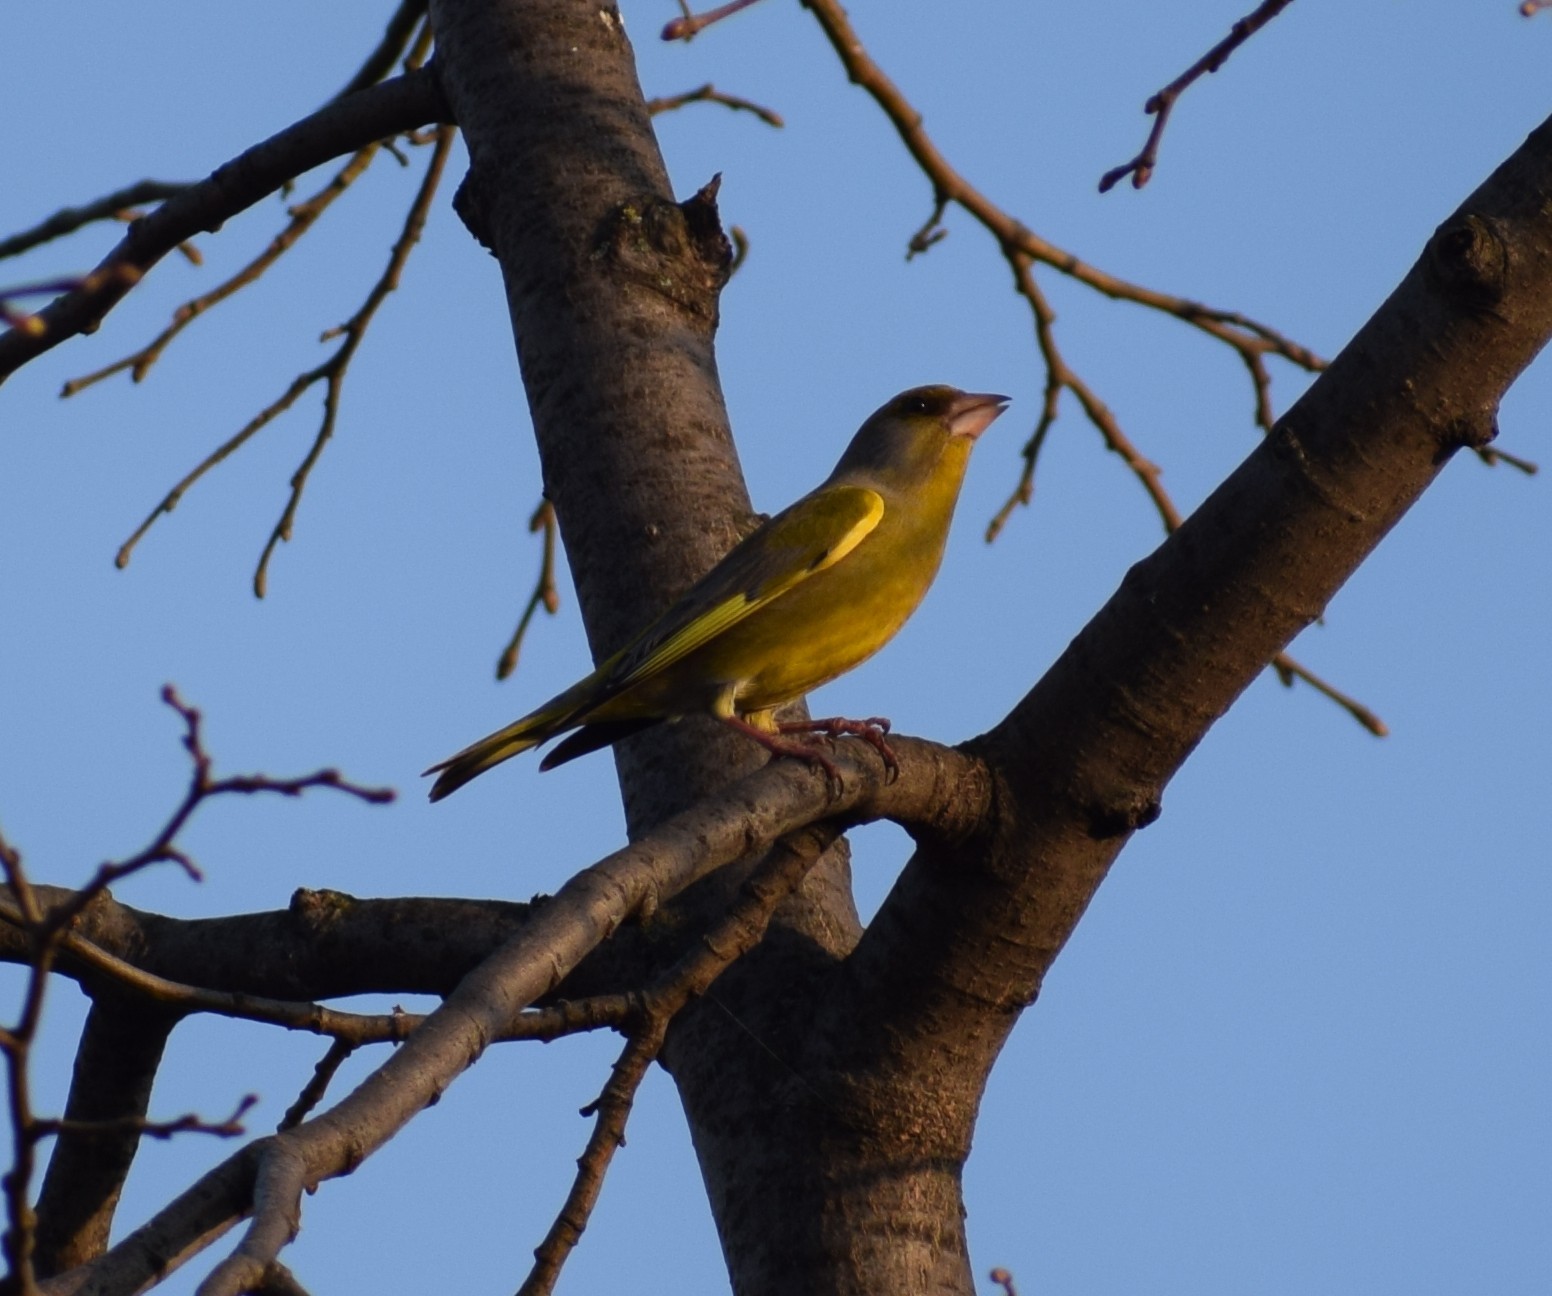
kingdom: Plantae
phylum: Tracheophyta
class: Liliopsida
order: Poales
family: Poaceae
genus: Chloris
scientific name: Chloris chloris
